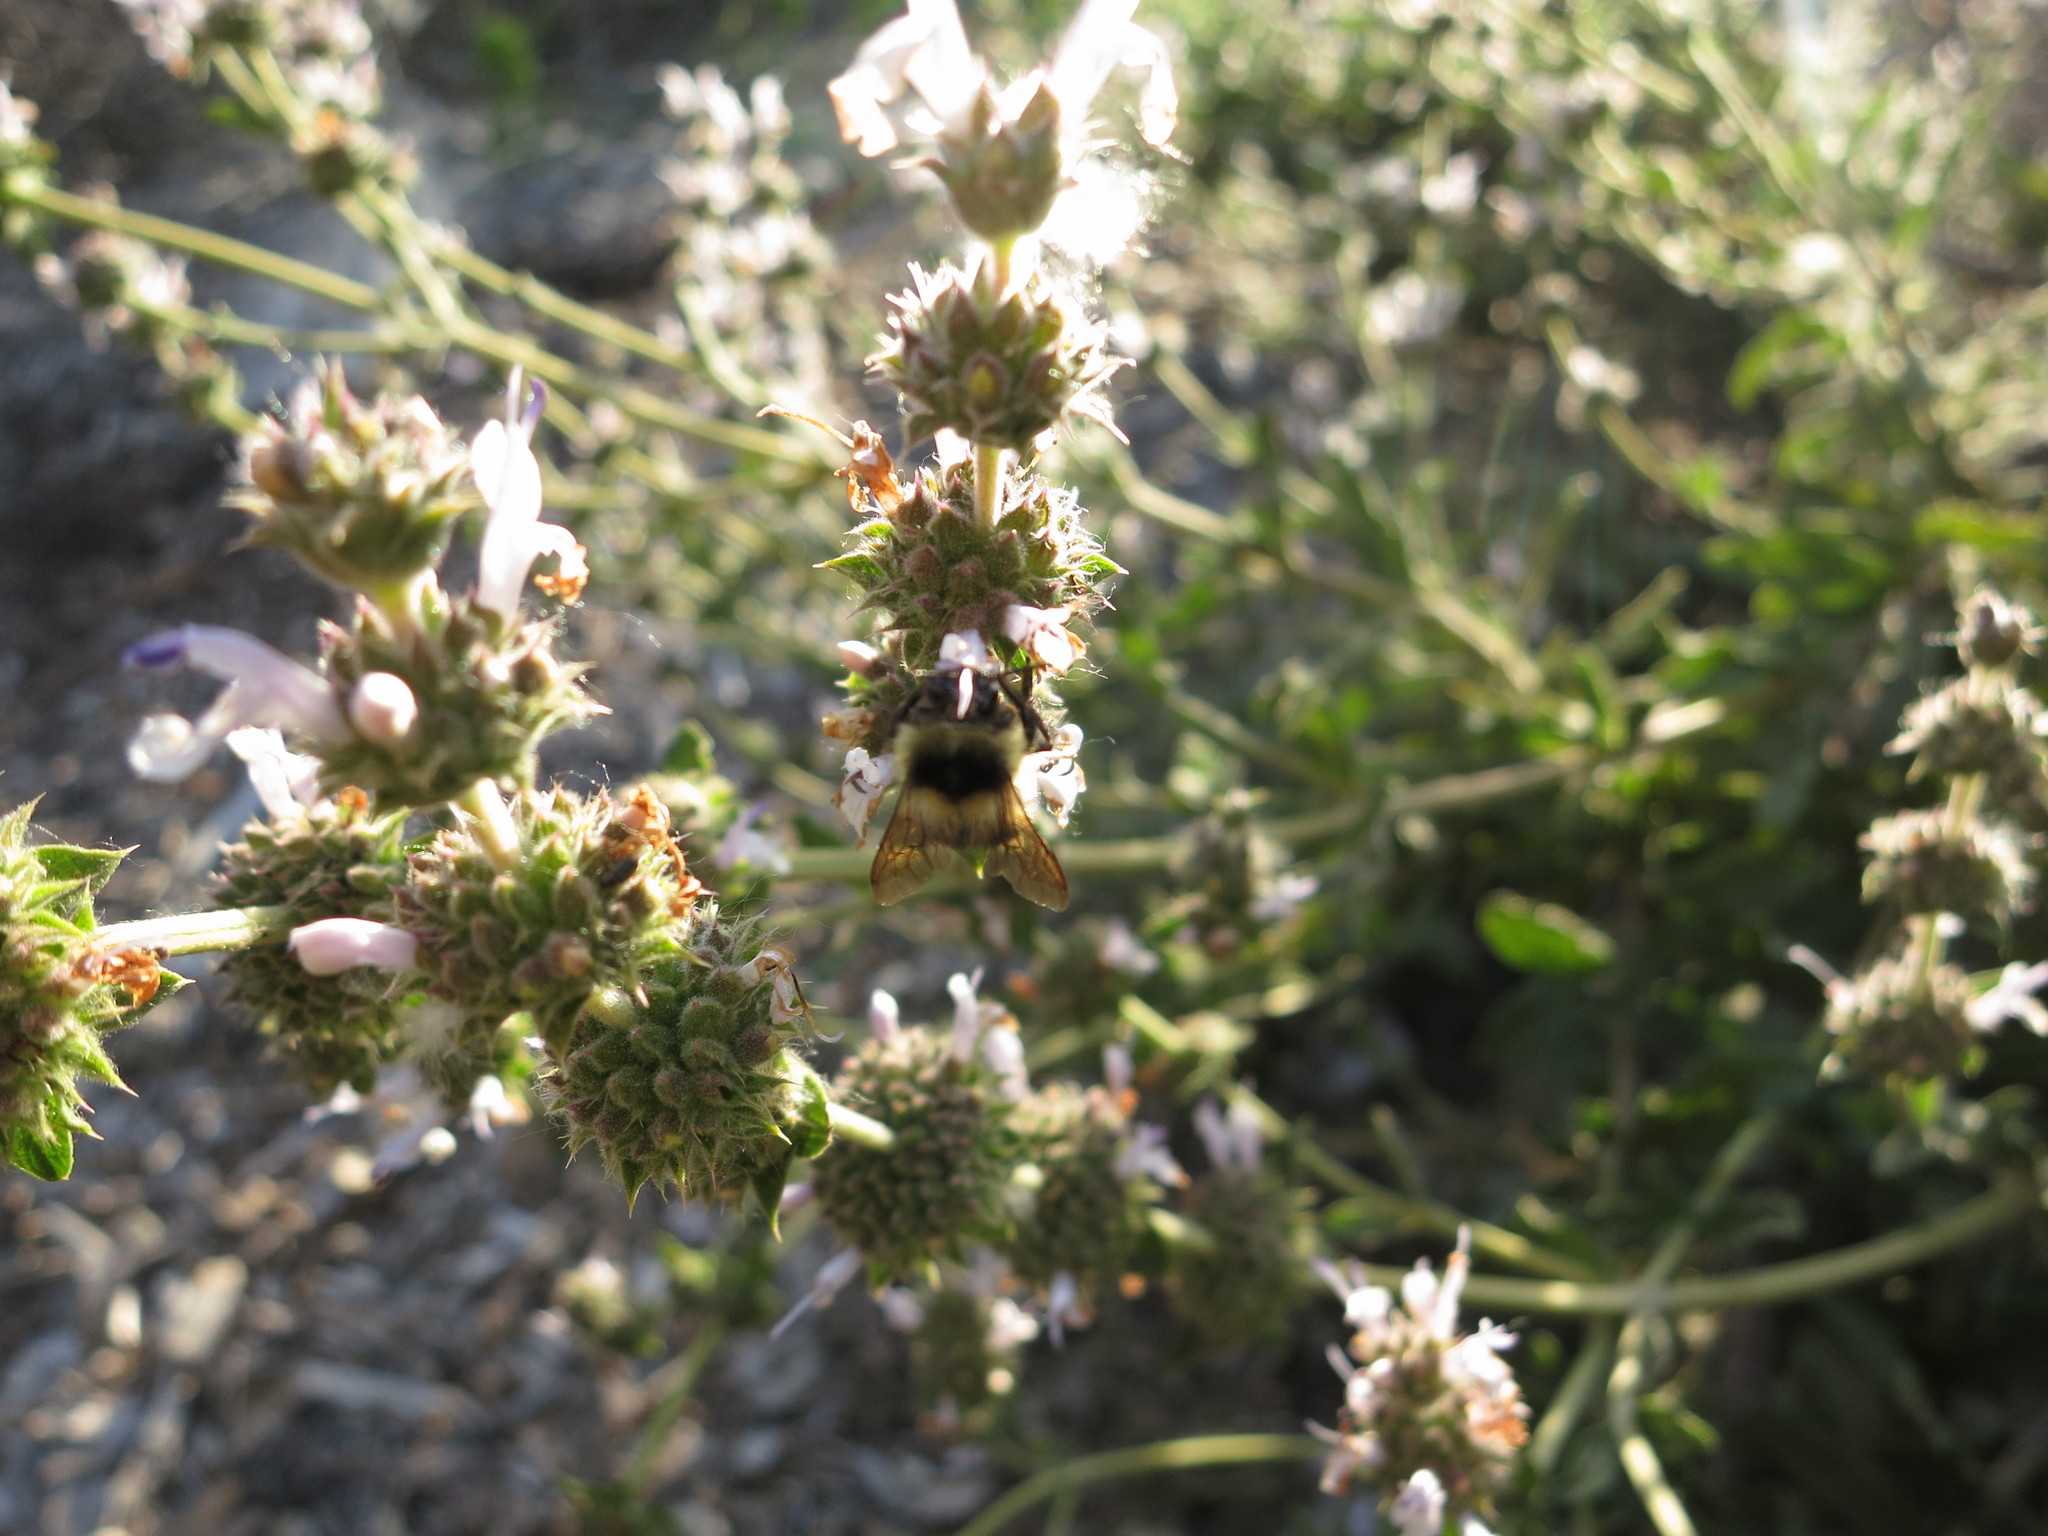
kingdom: Animalia
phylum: Arthropoda
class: Insecta
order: Hymenoptera
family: Apidae
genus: Bombus
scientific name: Bombus melanopygus
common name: Black tail bumble bee
